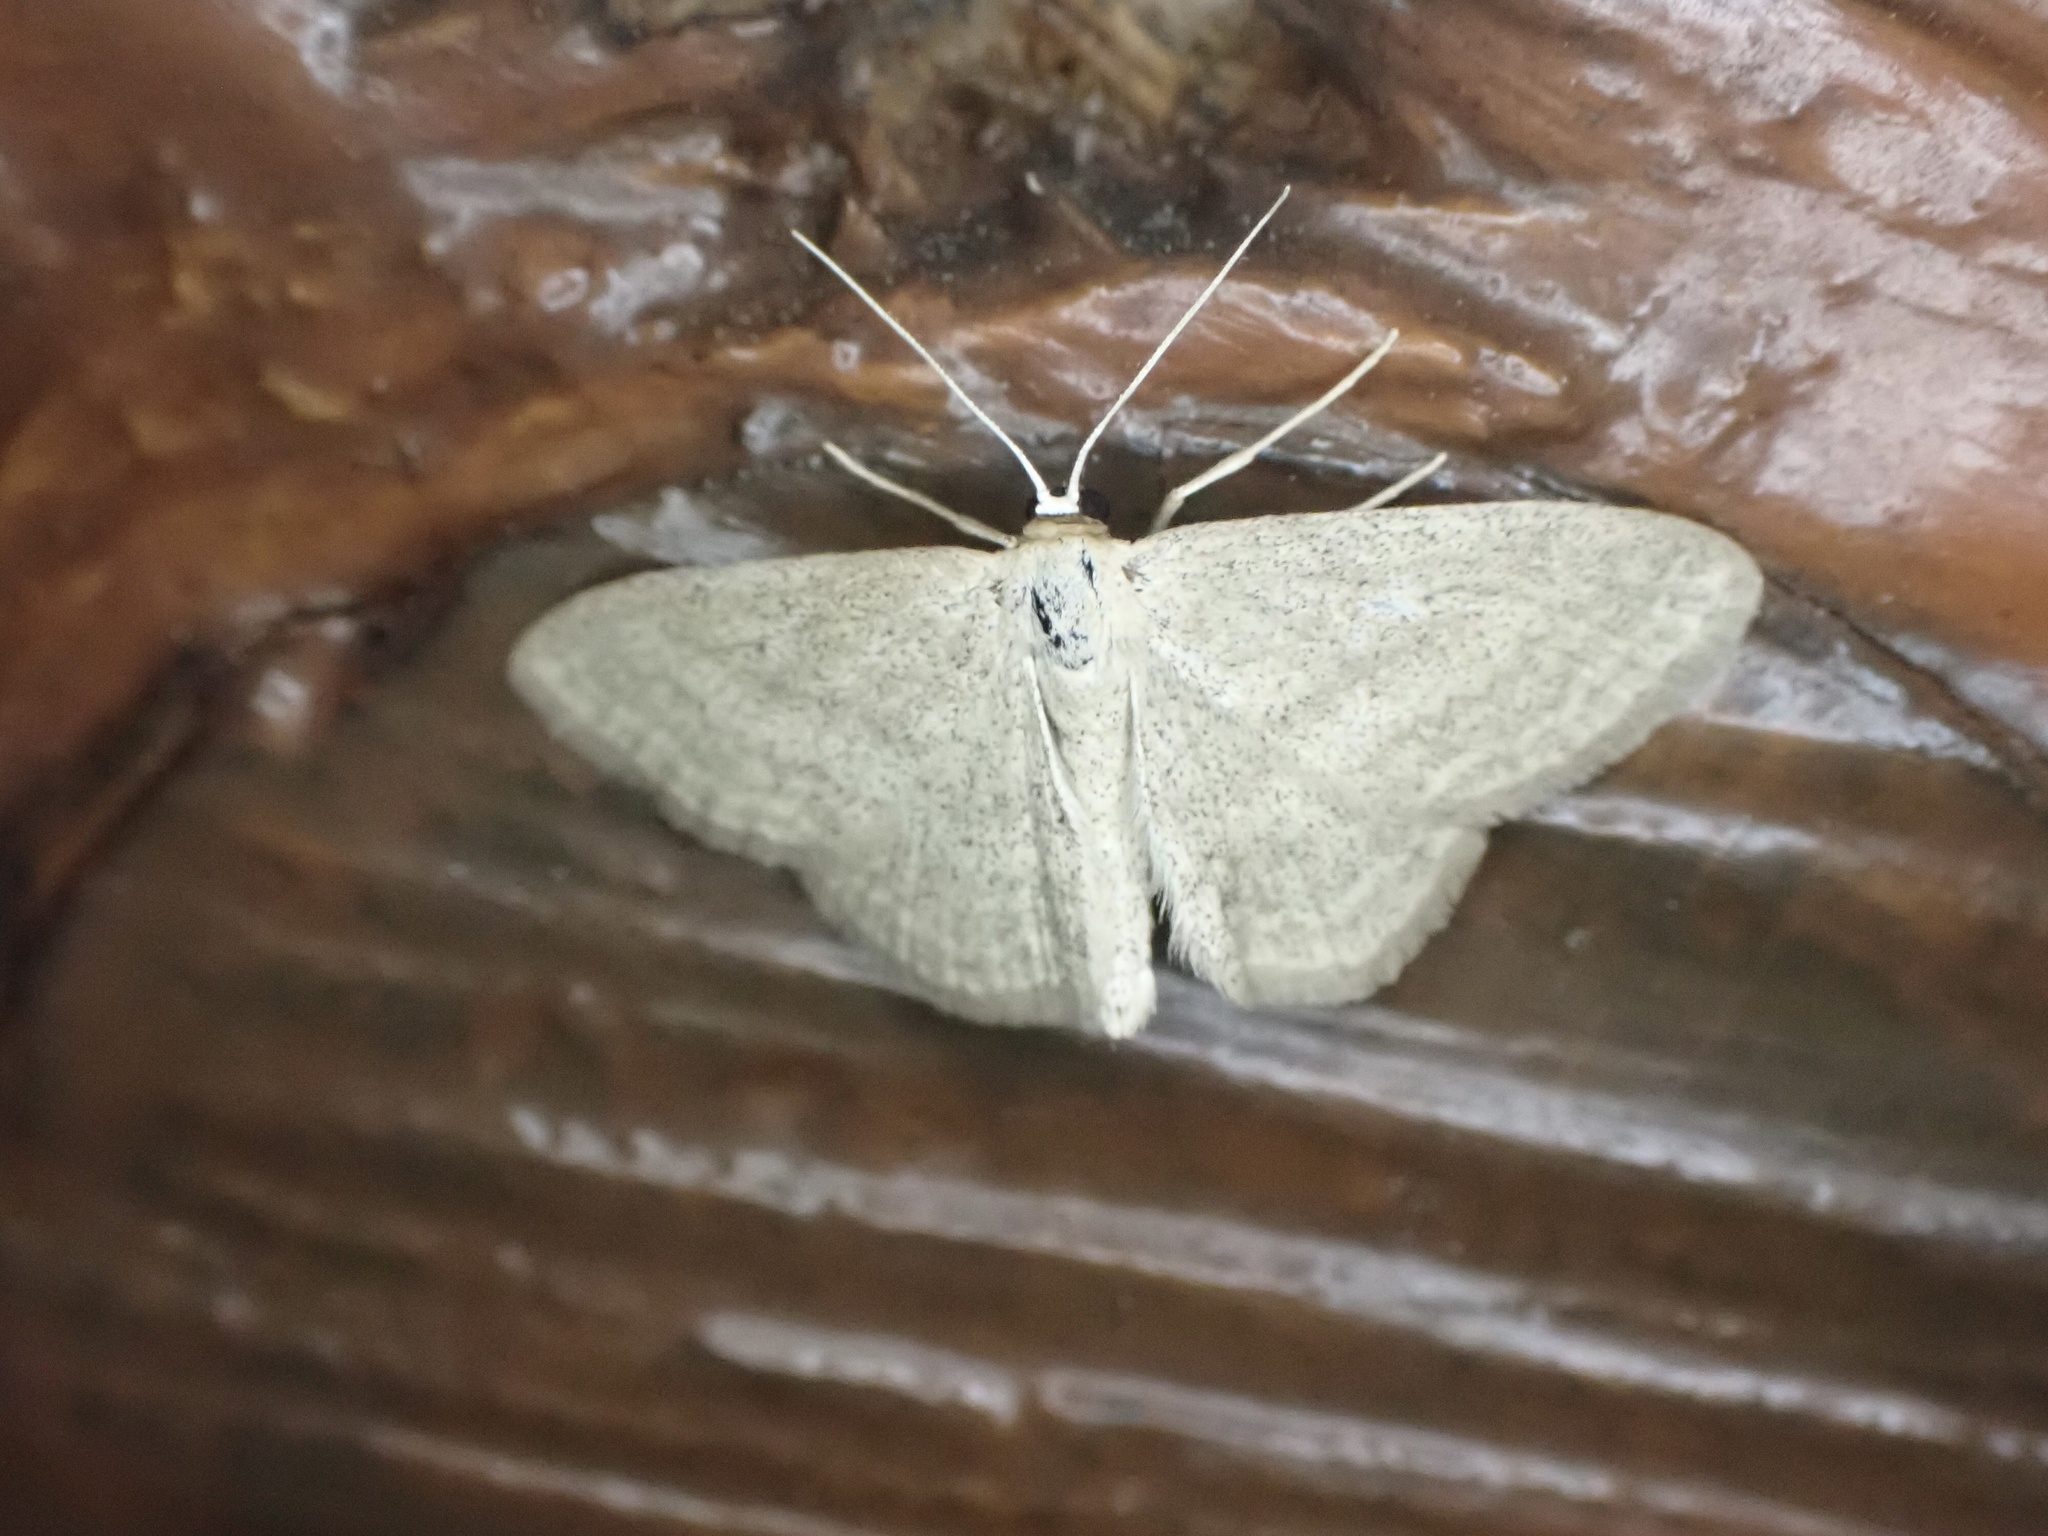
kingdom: Animalia
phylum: Arthropoda
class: Insecta
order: Lepidoptera
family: Geometridae
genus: Scopula
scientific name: Scopula inductata
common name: Soft-lined wave
